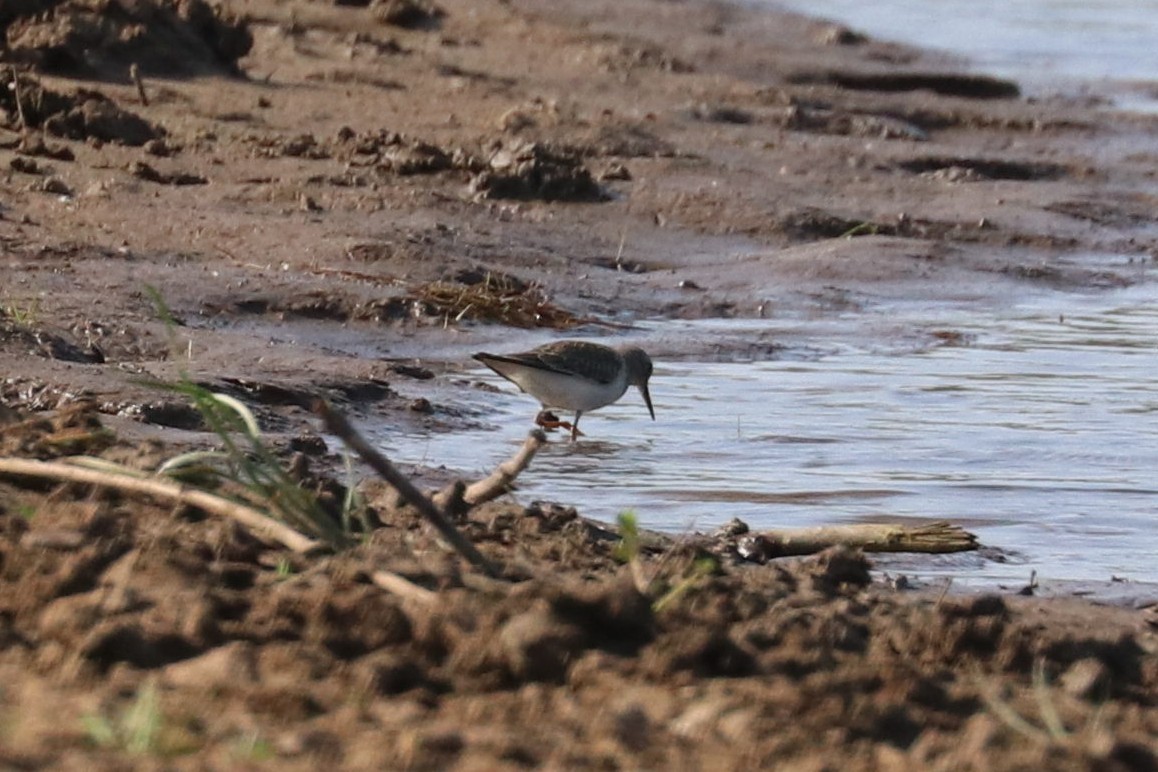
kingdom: Animalia
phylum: Chordata
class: Aves
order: Charadriiformes
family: Scolopacidae
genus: Actitis
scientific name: Actitis hypoleucos
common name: Common sandpiper
